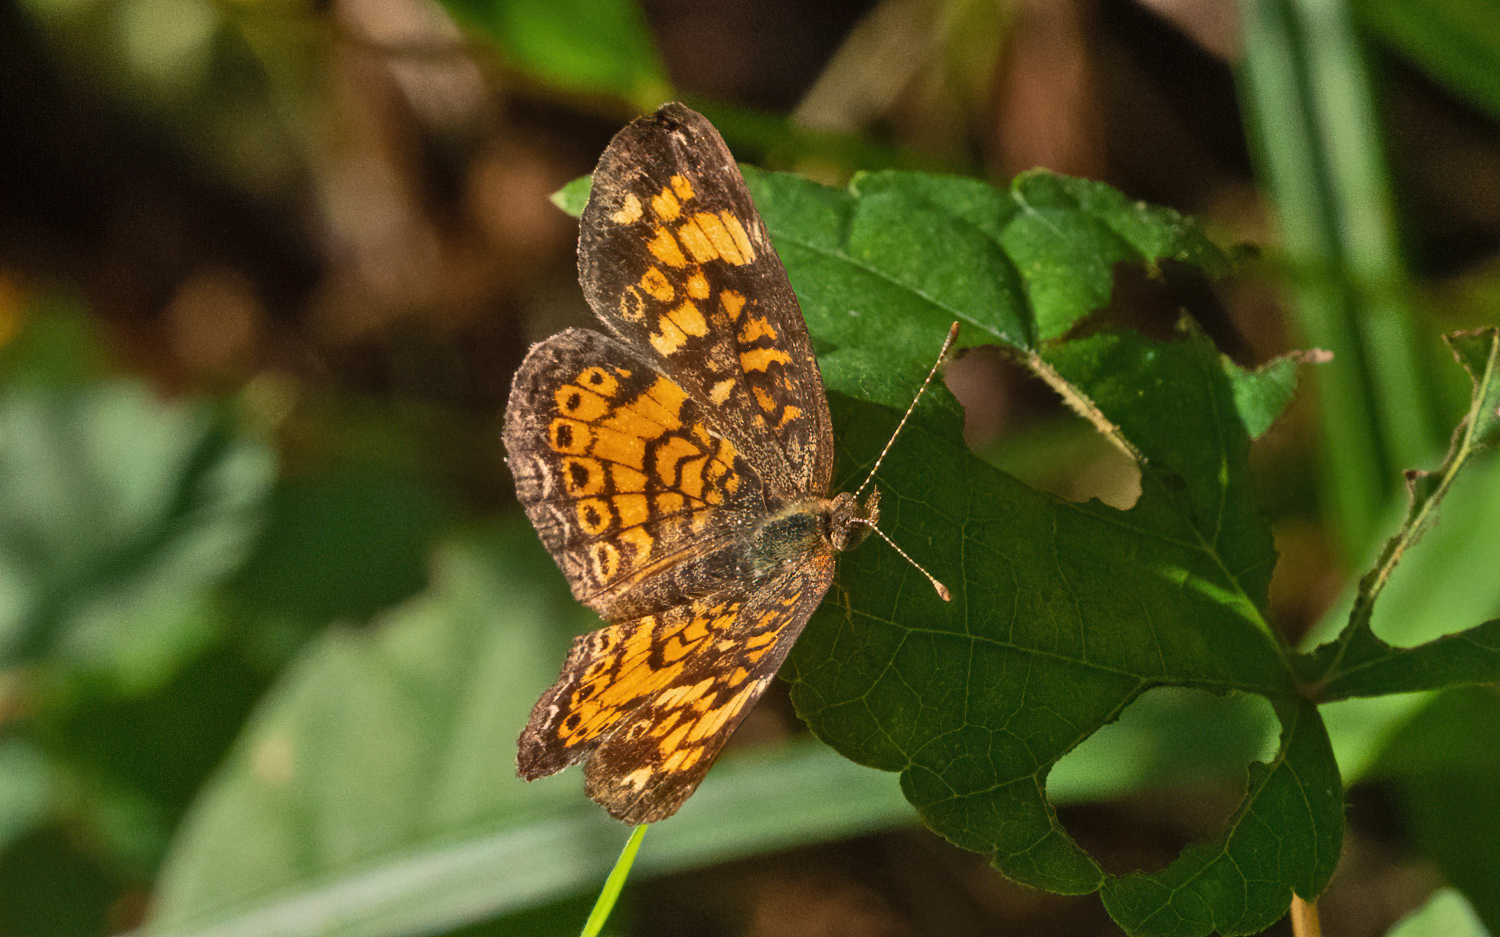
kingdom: Animalia
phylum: Arthropoda
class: Insecta
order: Lepidoptera
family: Nymphalidae
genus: Phyciodes
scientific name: Phyciodes tharos
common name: Pearl crescent
